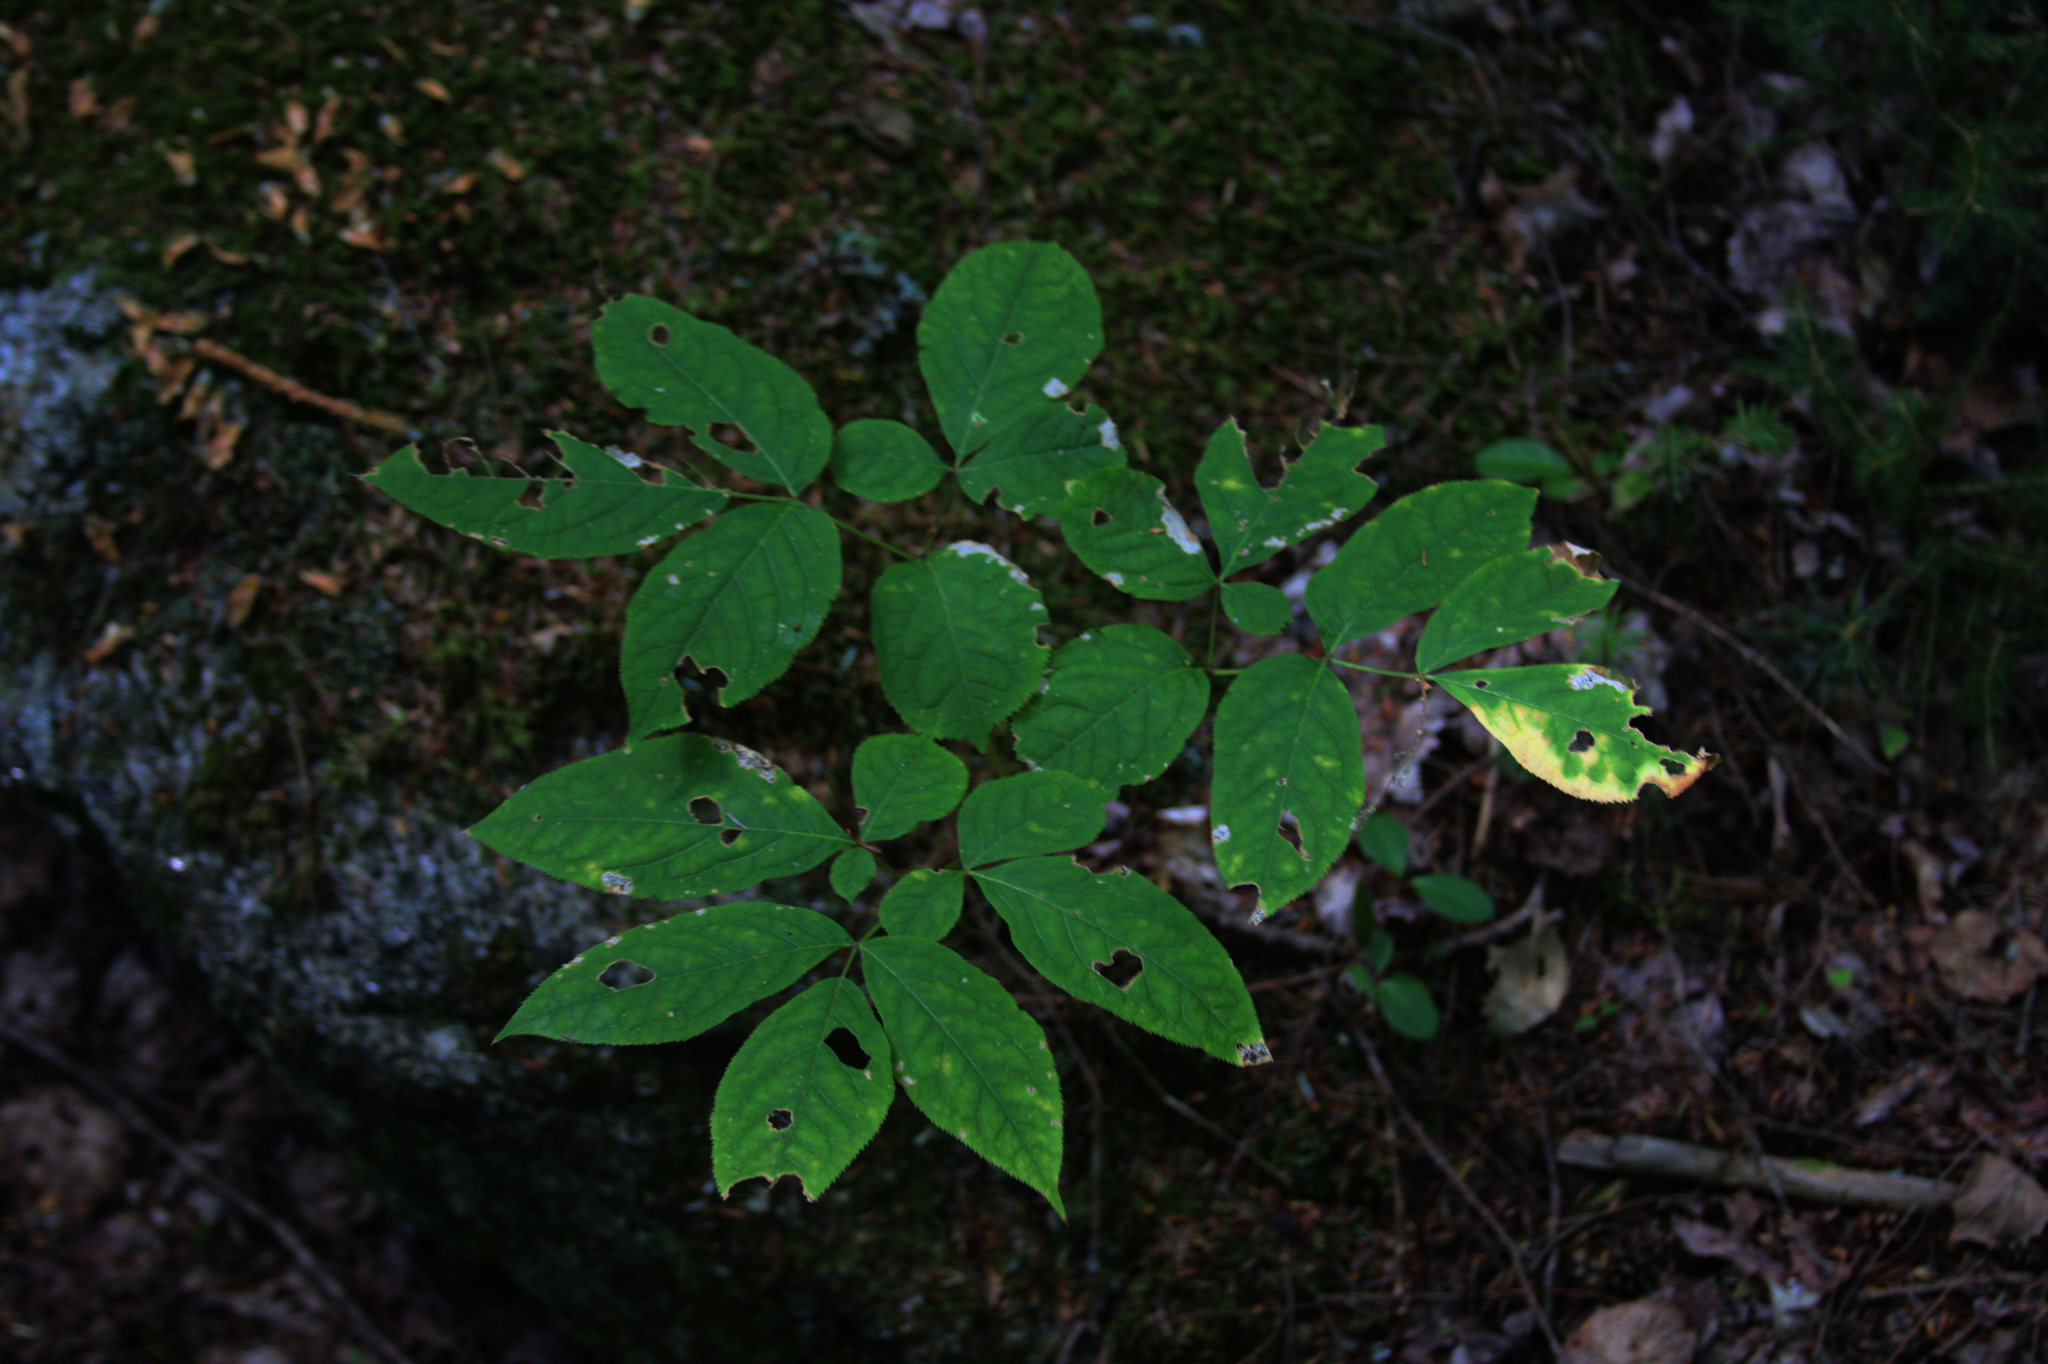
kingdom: Plantae
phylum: Tracheophyta
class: Magnoliopsida
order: Apiales
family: Araliaceae
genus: Aralia
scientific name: Aralia nudicaulis
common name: Wild sarsaparilla
